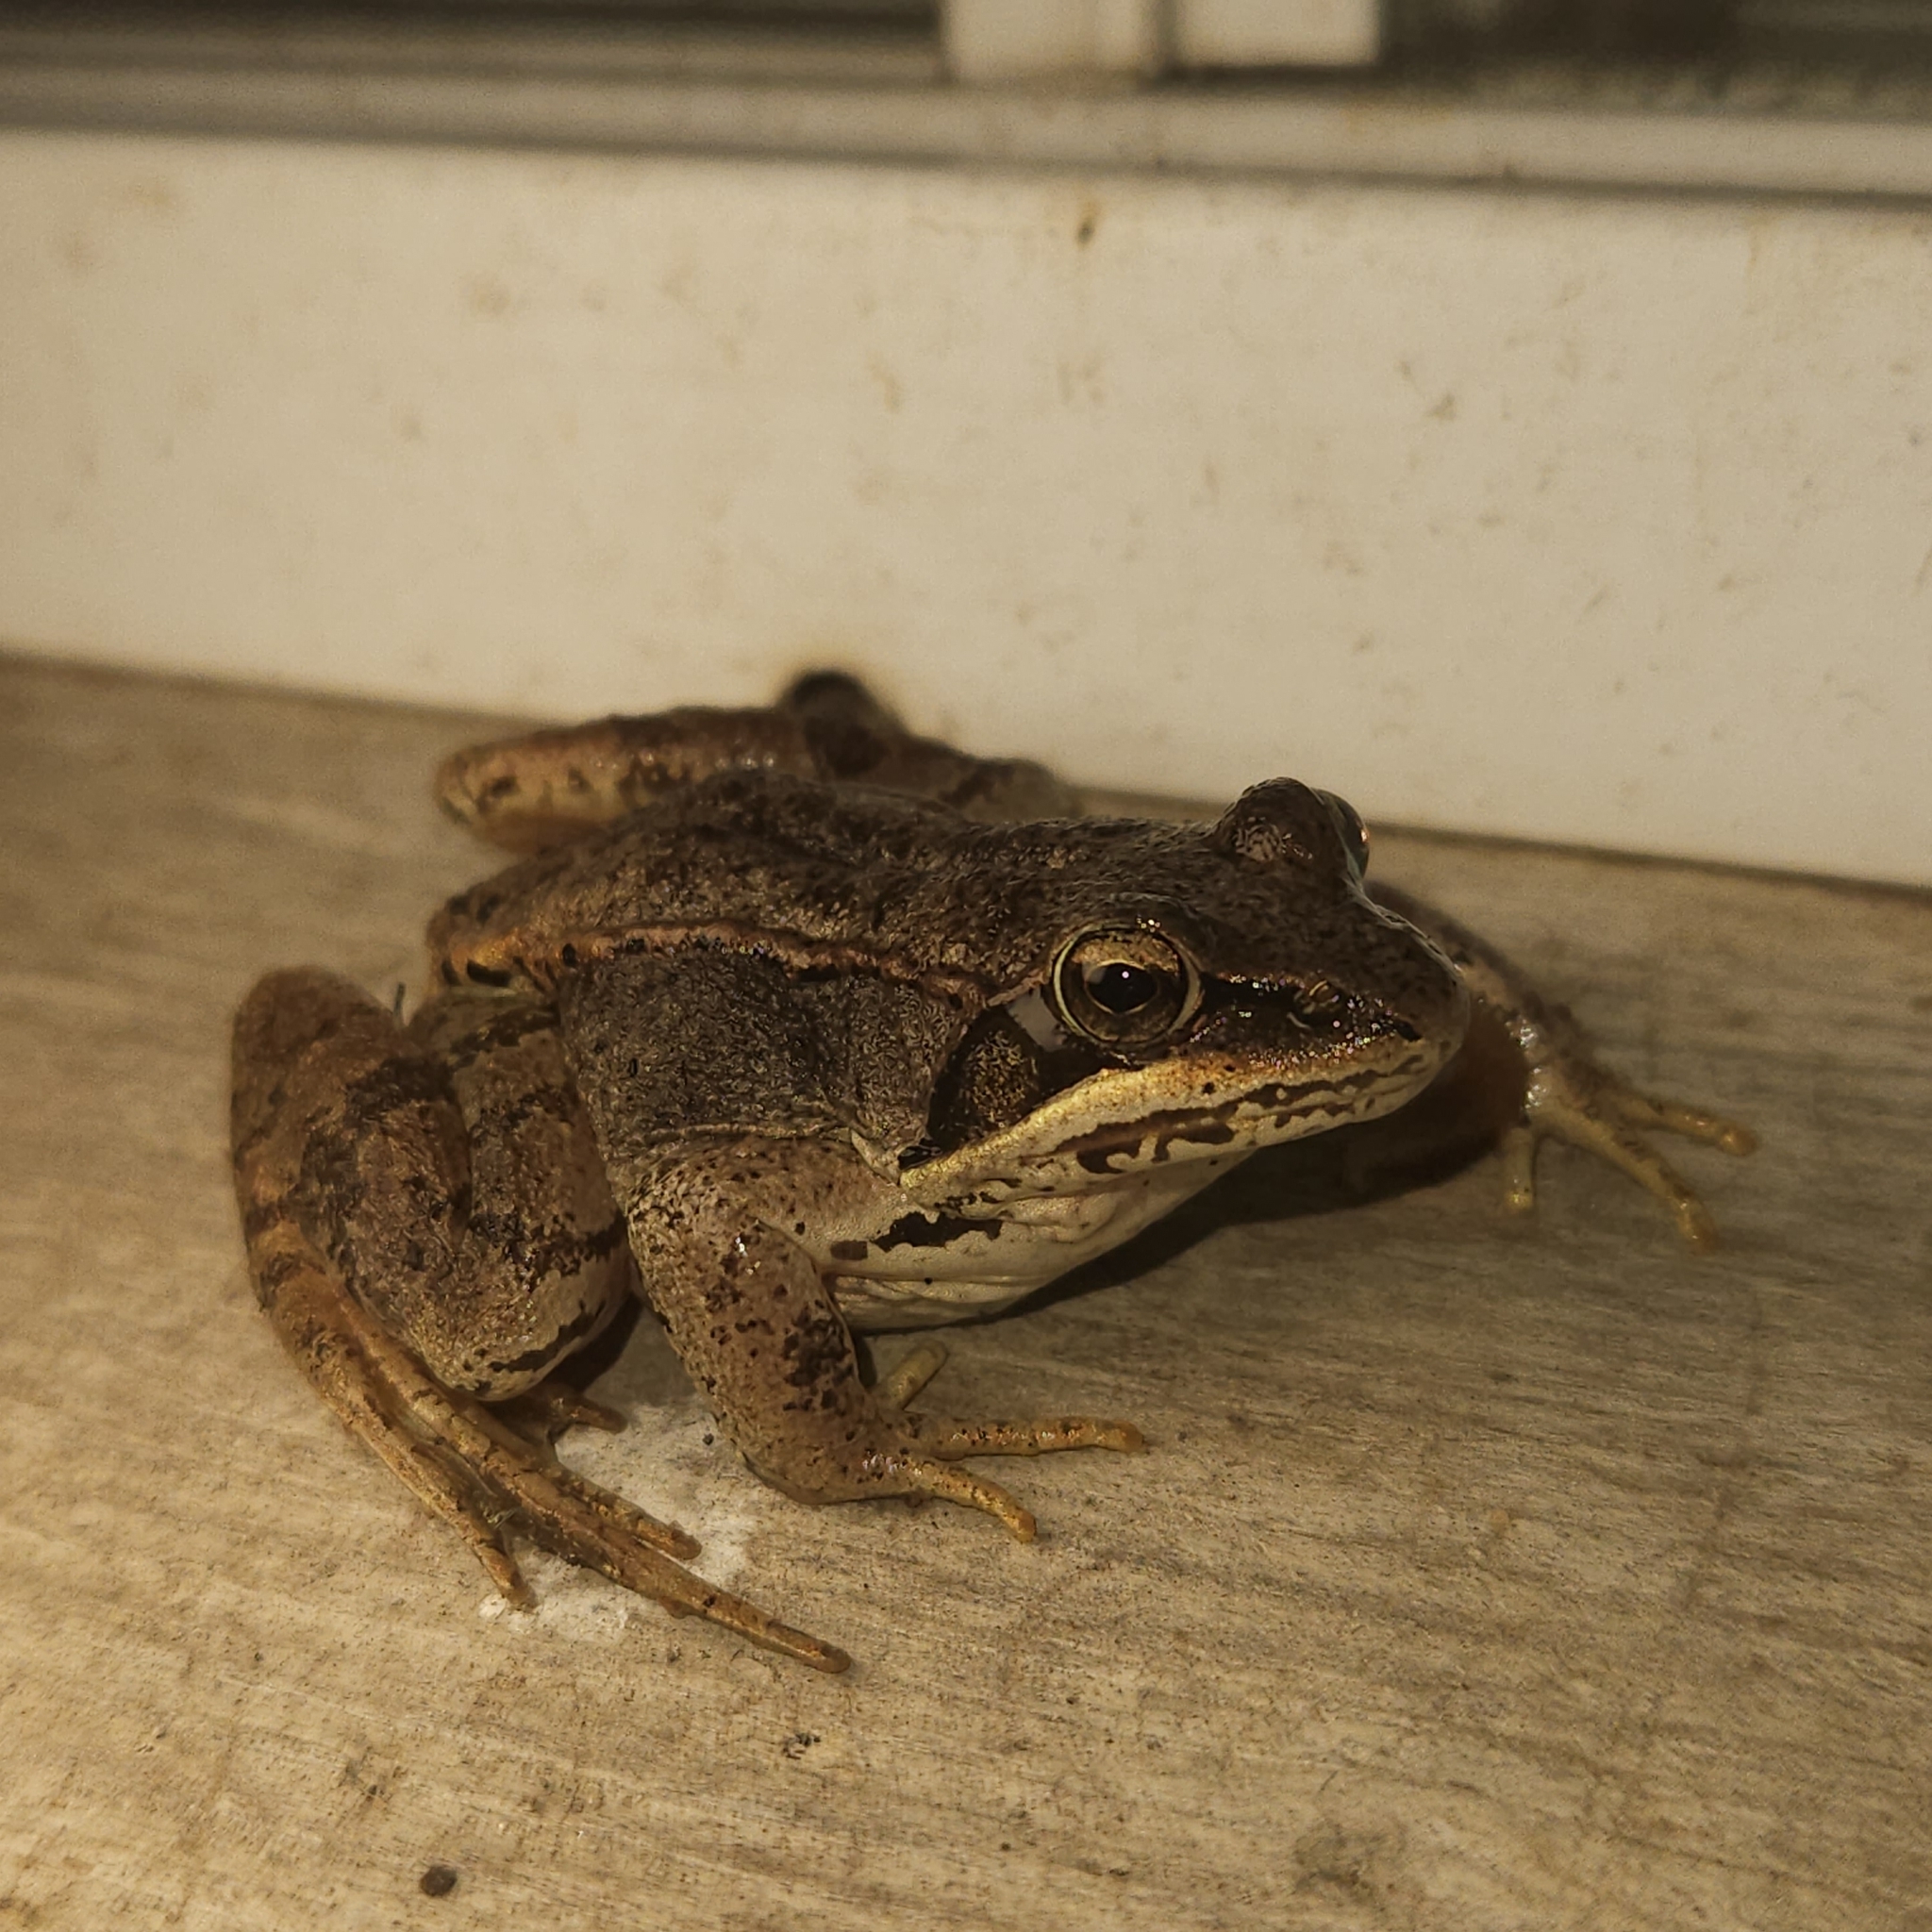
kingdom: Animalia
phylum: Chordata
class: Amphibia
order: Anura
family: Ranidae
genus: Lithobates
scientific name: Lithobates sylvaticus
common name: Wood frog
